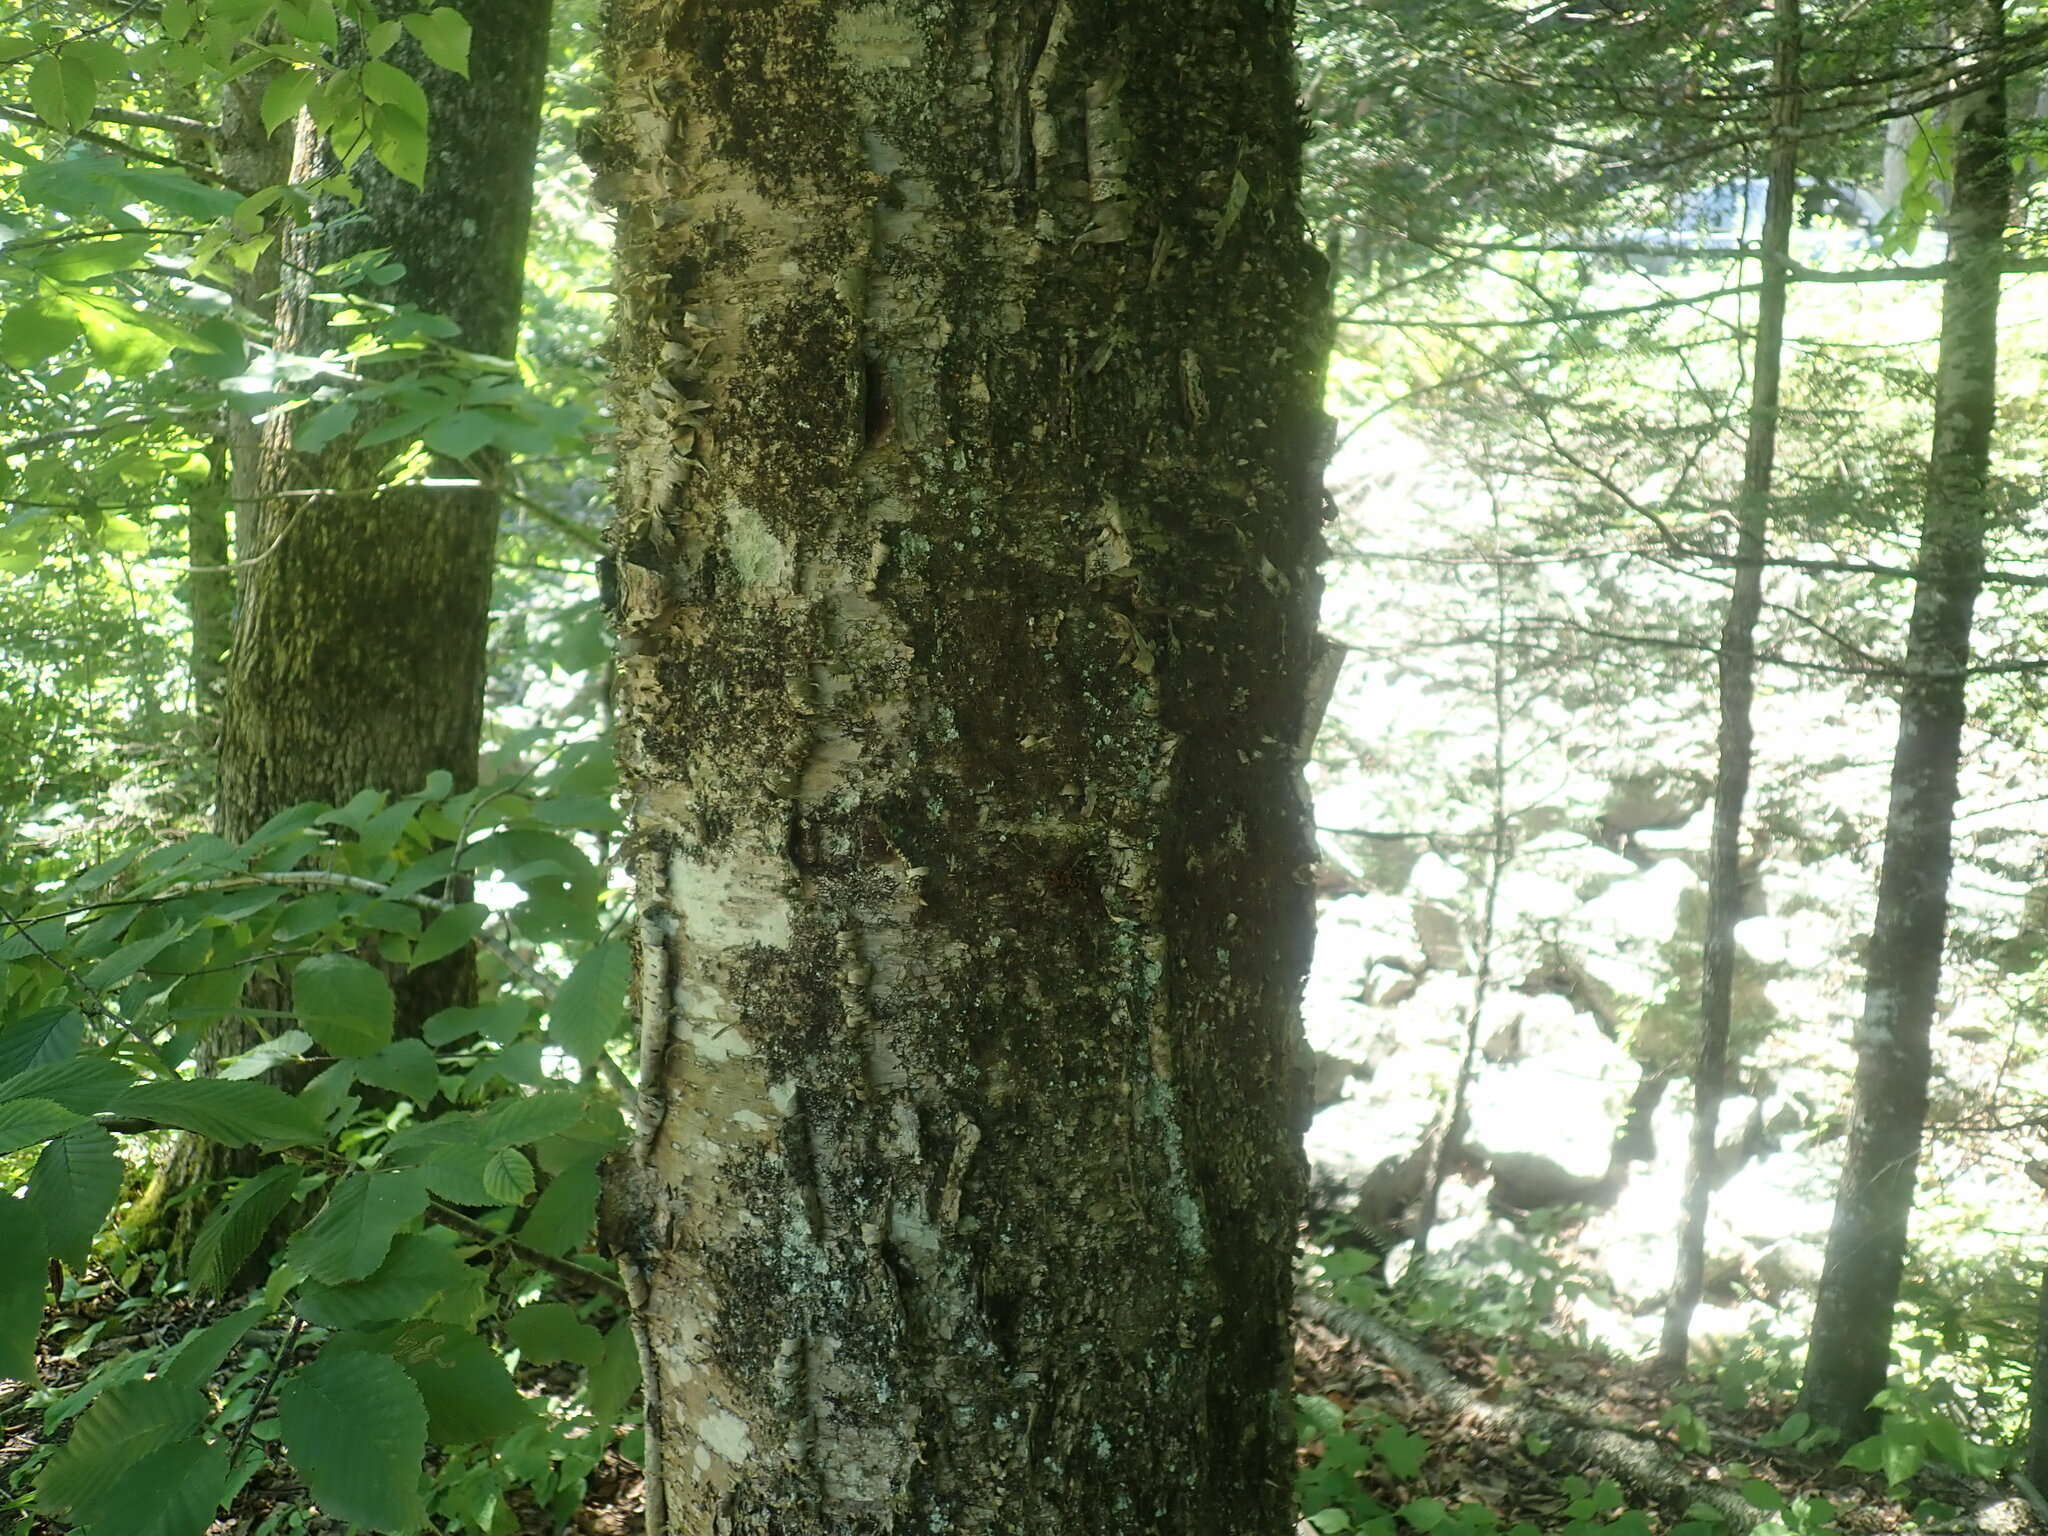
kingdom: Plantae
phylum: Tracheophyta
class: Magnoliopsida
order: Fagales
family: Betulaceae
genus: Betula
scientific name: Betula alleghaniensis
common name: Yellow birch
